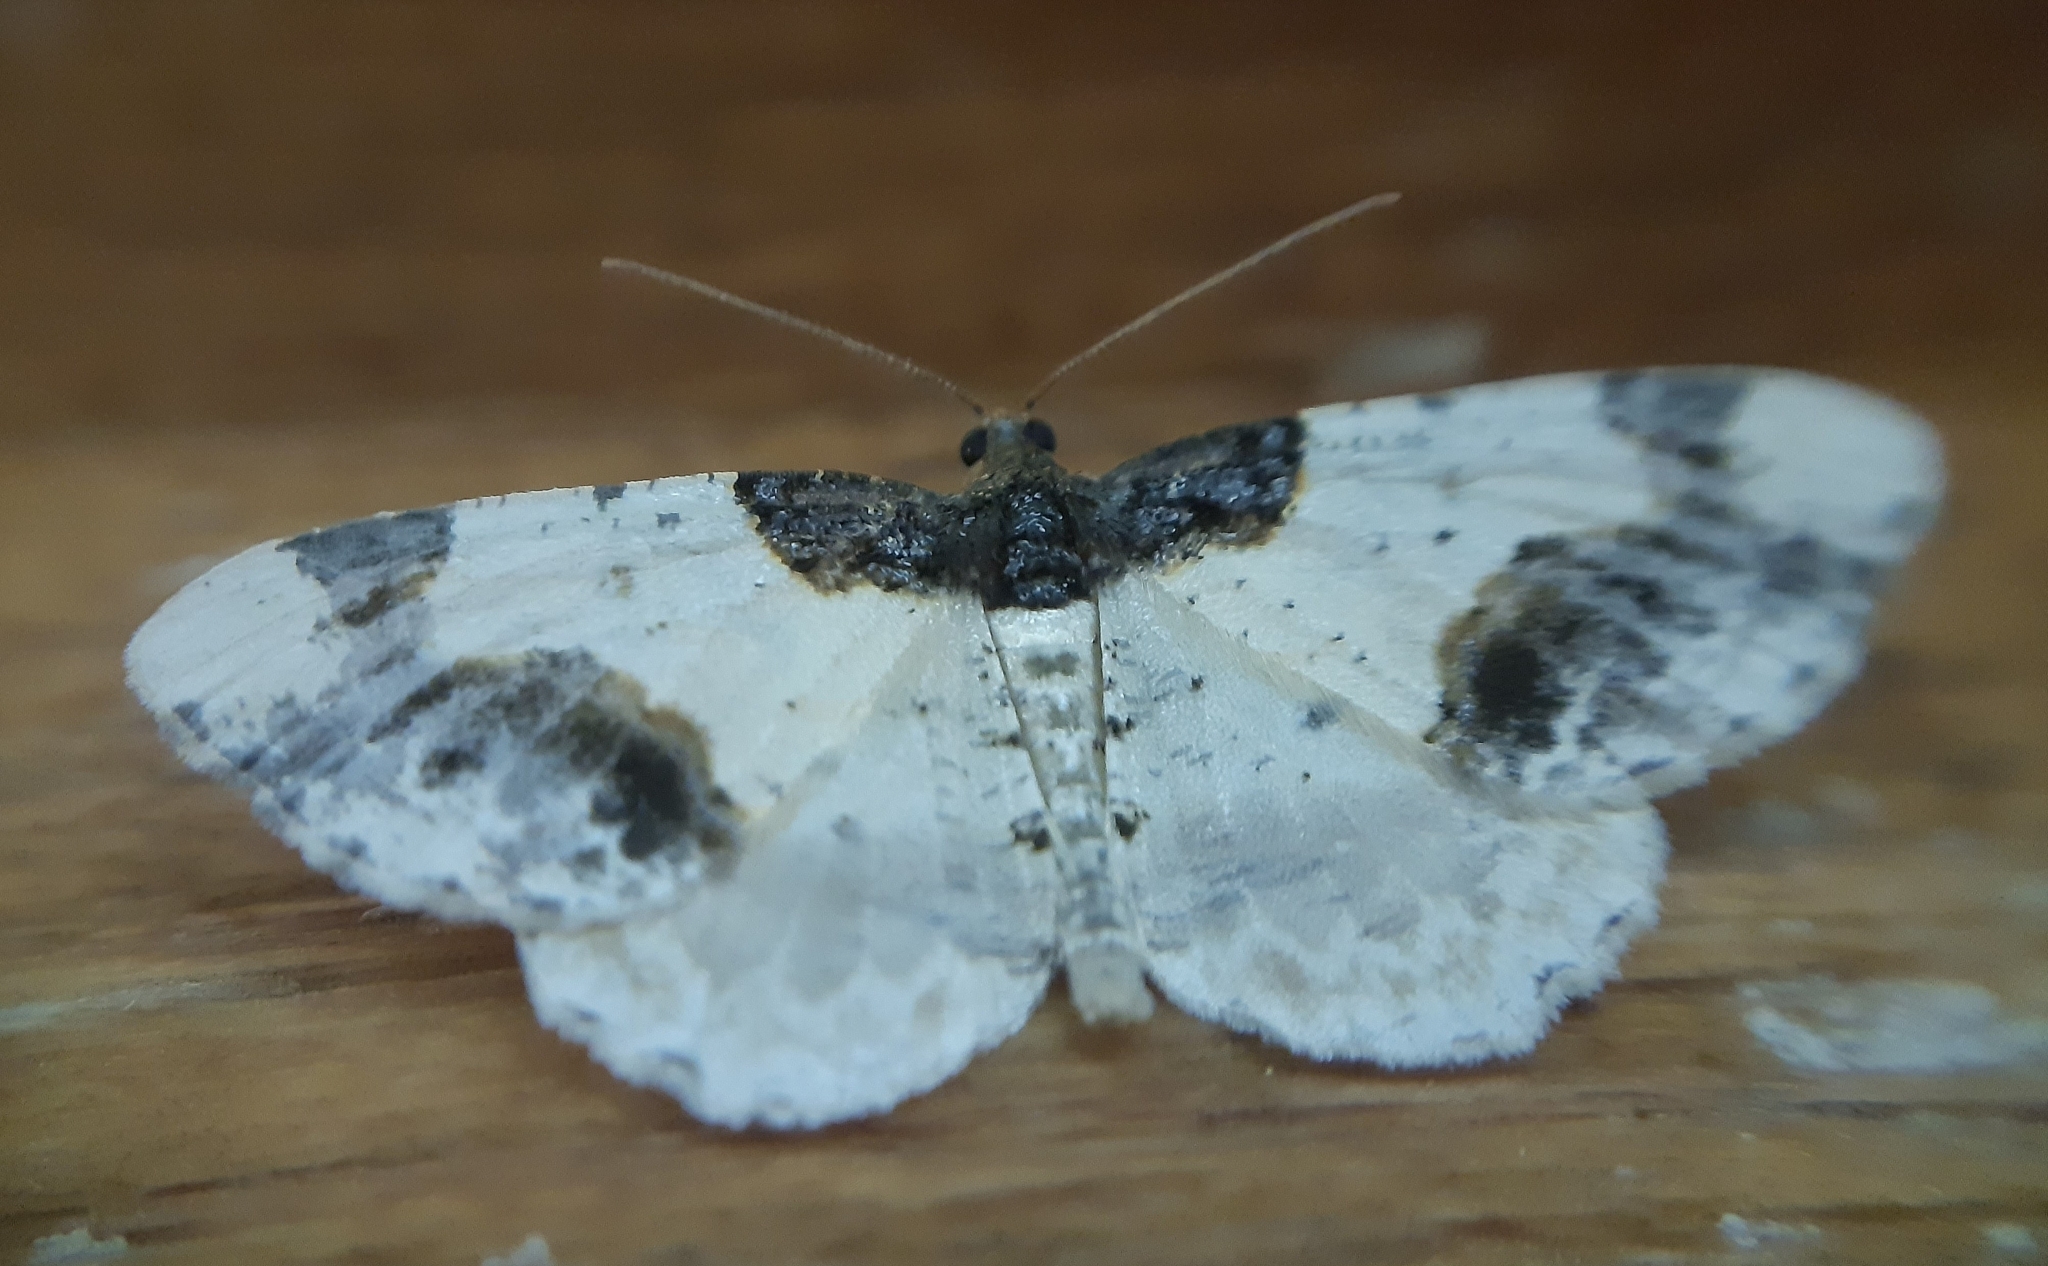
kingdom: Animalia
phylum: Arthropoda
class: Insecta
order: Lepidoptera
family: Geometridae
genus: Ligdia
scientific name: Ligdia adustata
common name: Scorched carpet
